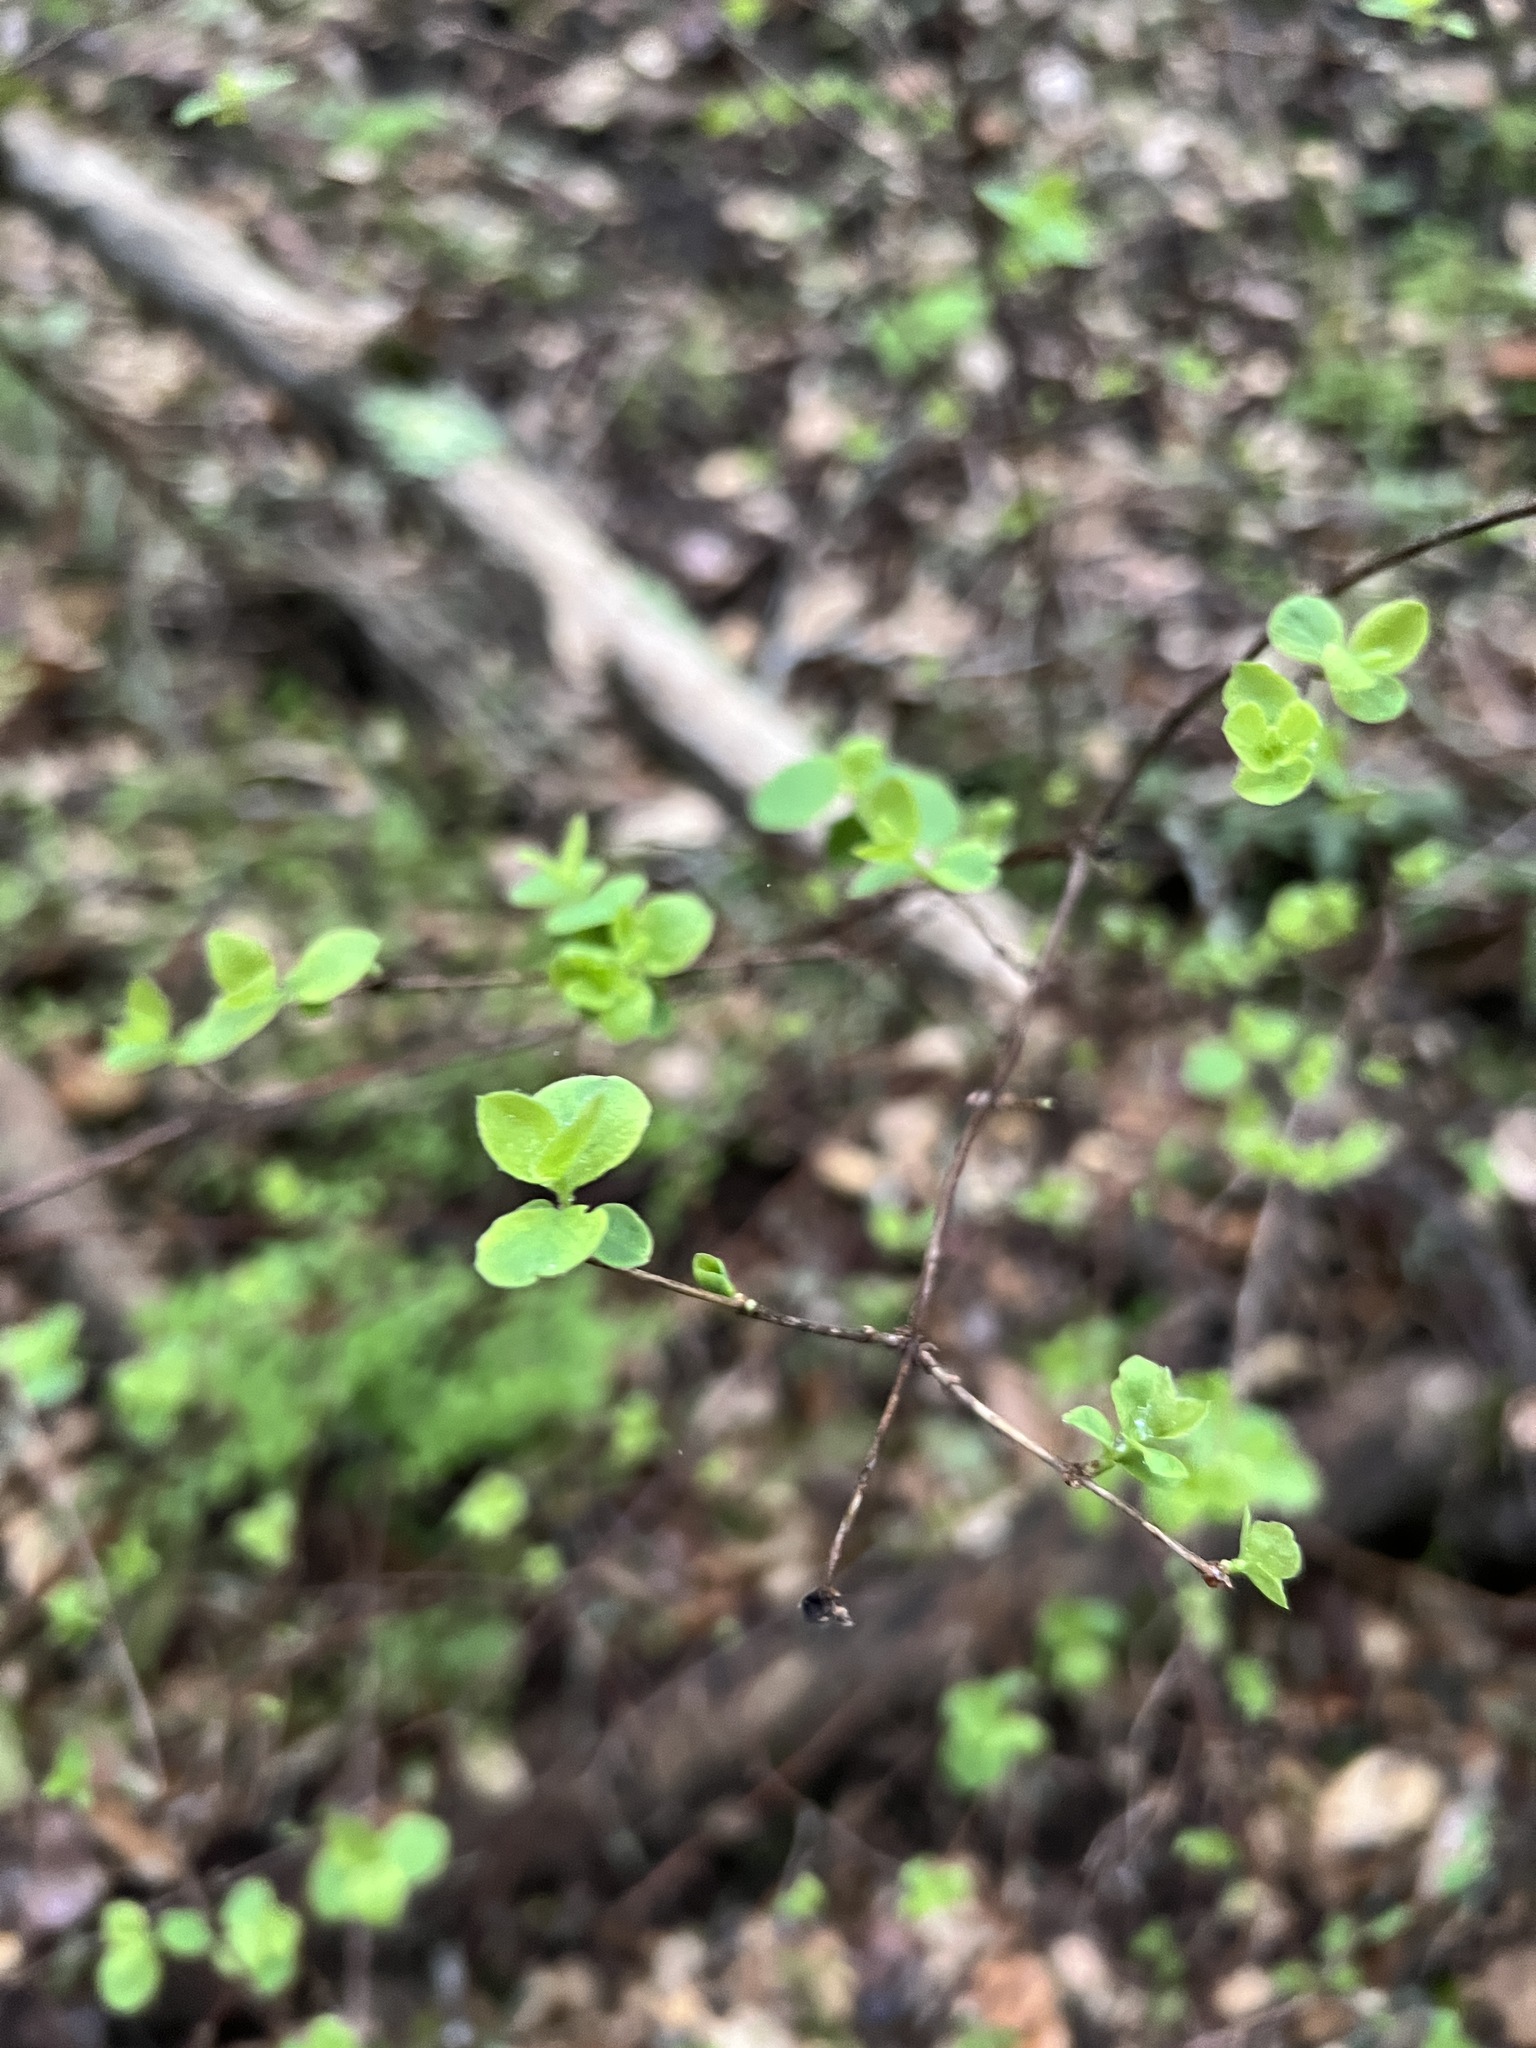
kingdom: Plantae
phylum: Tracheophyta
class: Magnoliopsida
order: Dipsacales
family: Caprifoliaceae
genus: Symphoricarpos
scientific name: Symphoricarpos albus
